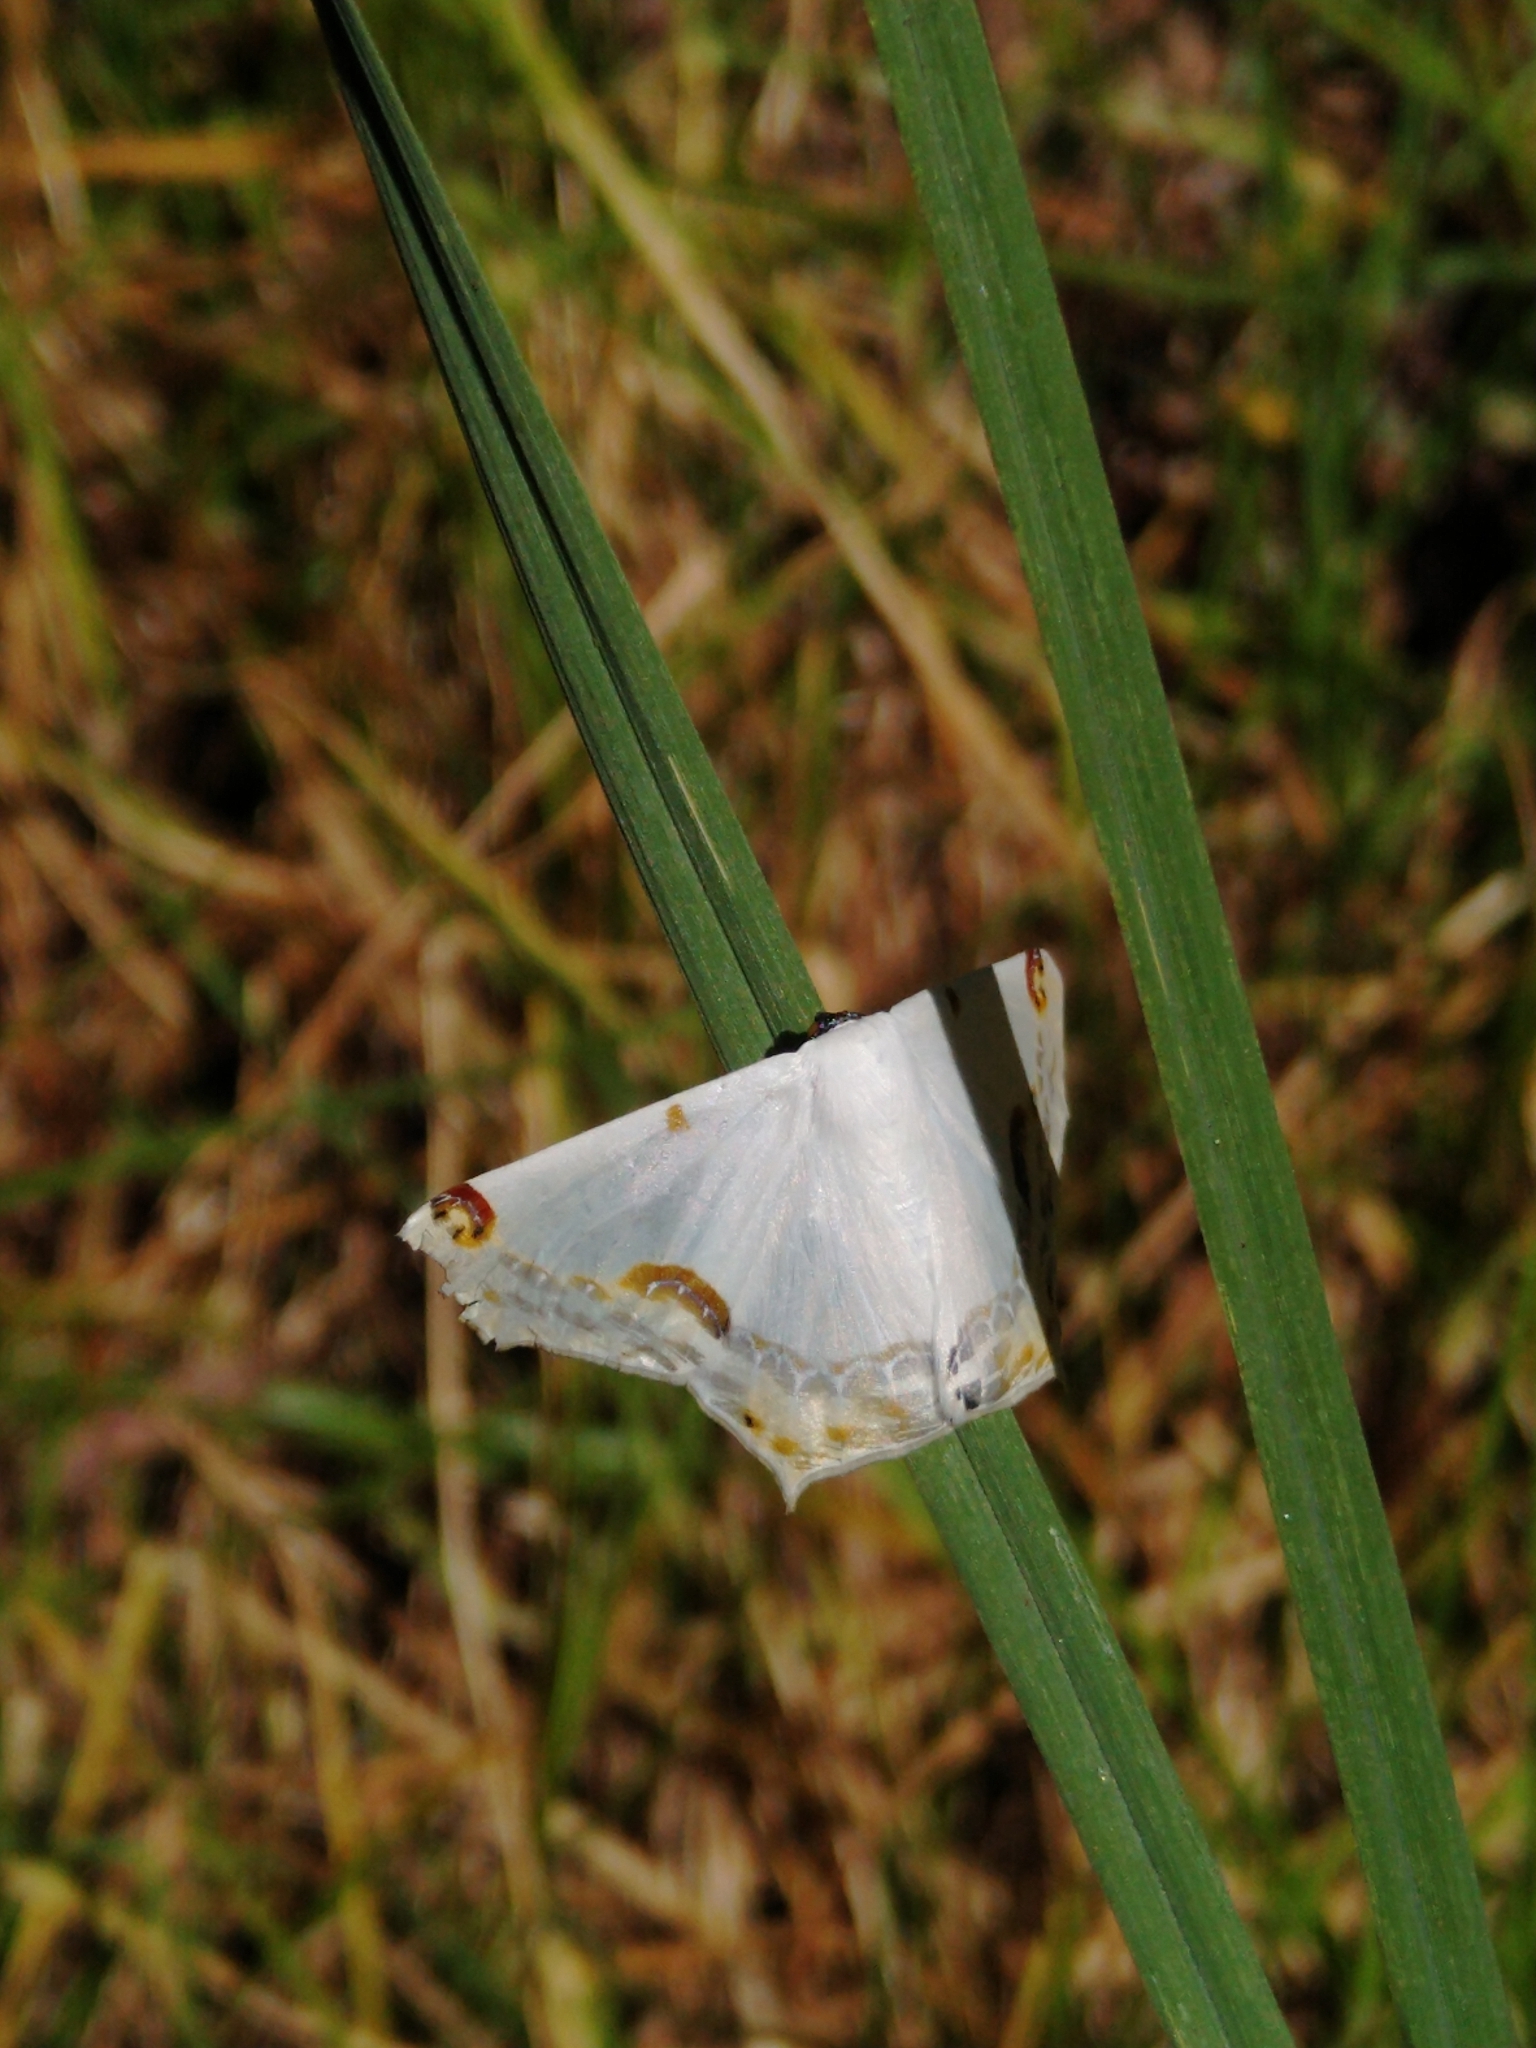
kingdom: Animalia
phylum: Arthropoda
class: Insecta
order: Lepidoptera
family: Geometridae
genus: Sericoptera
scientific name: Sericoptera mahometaria
